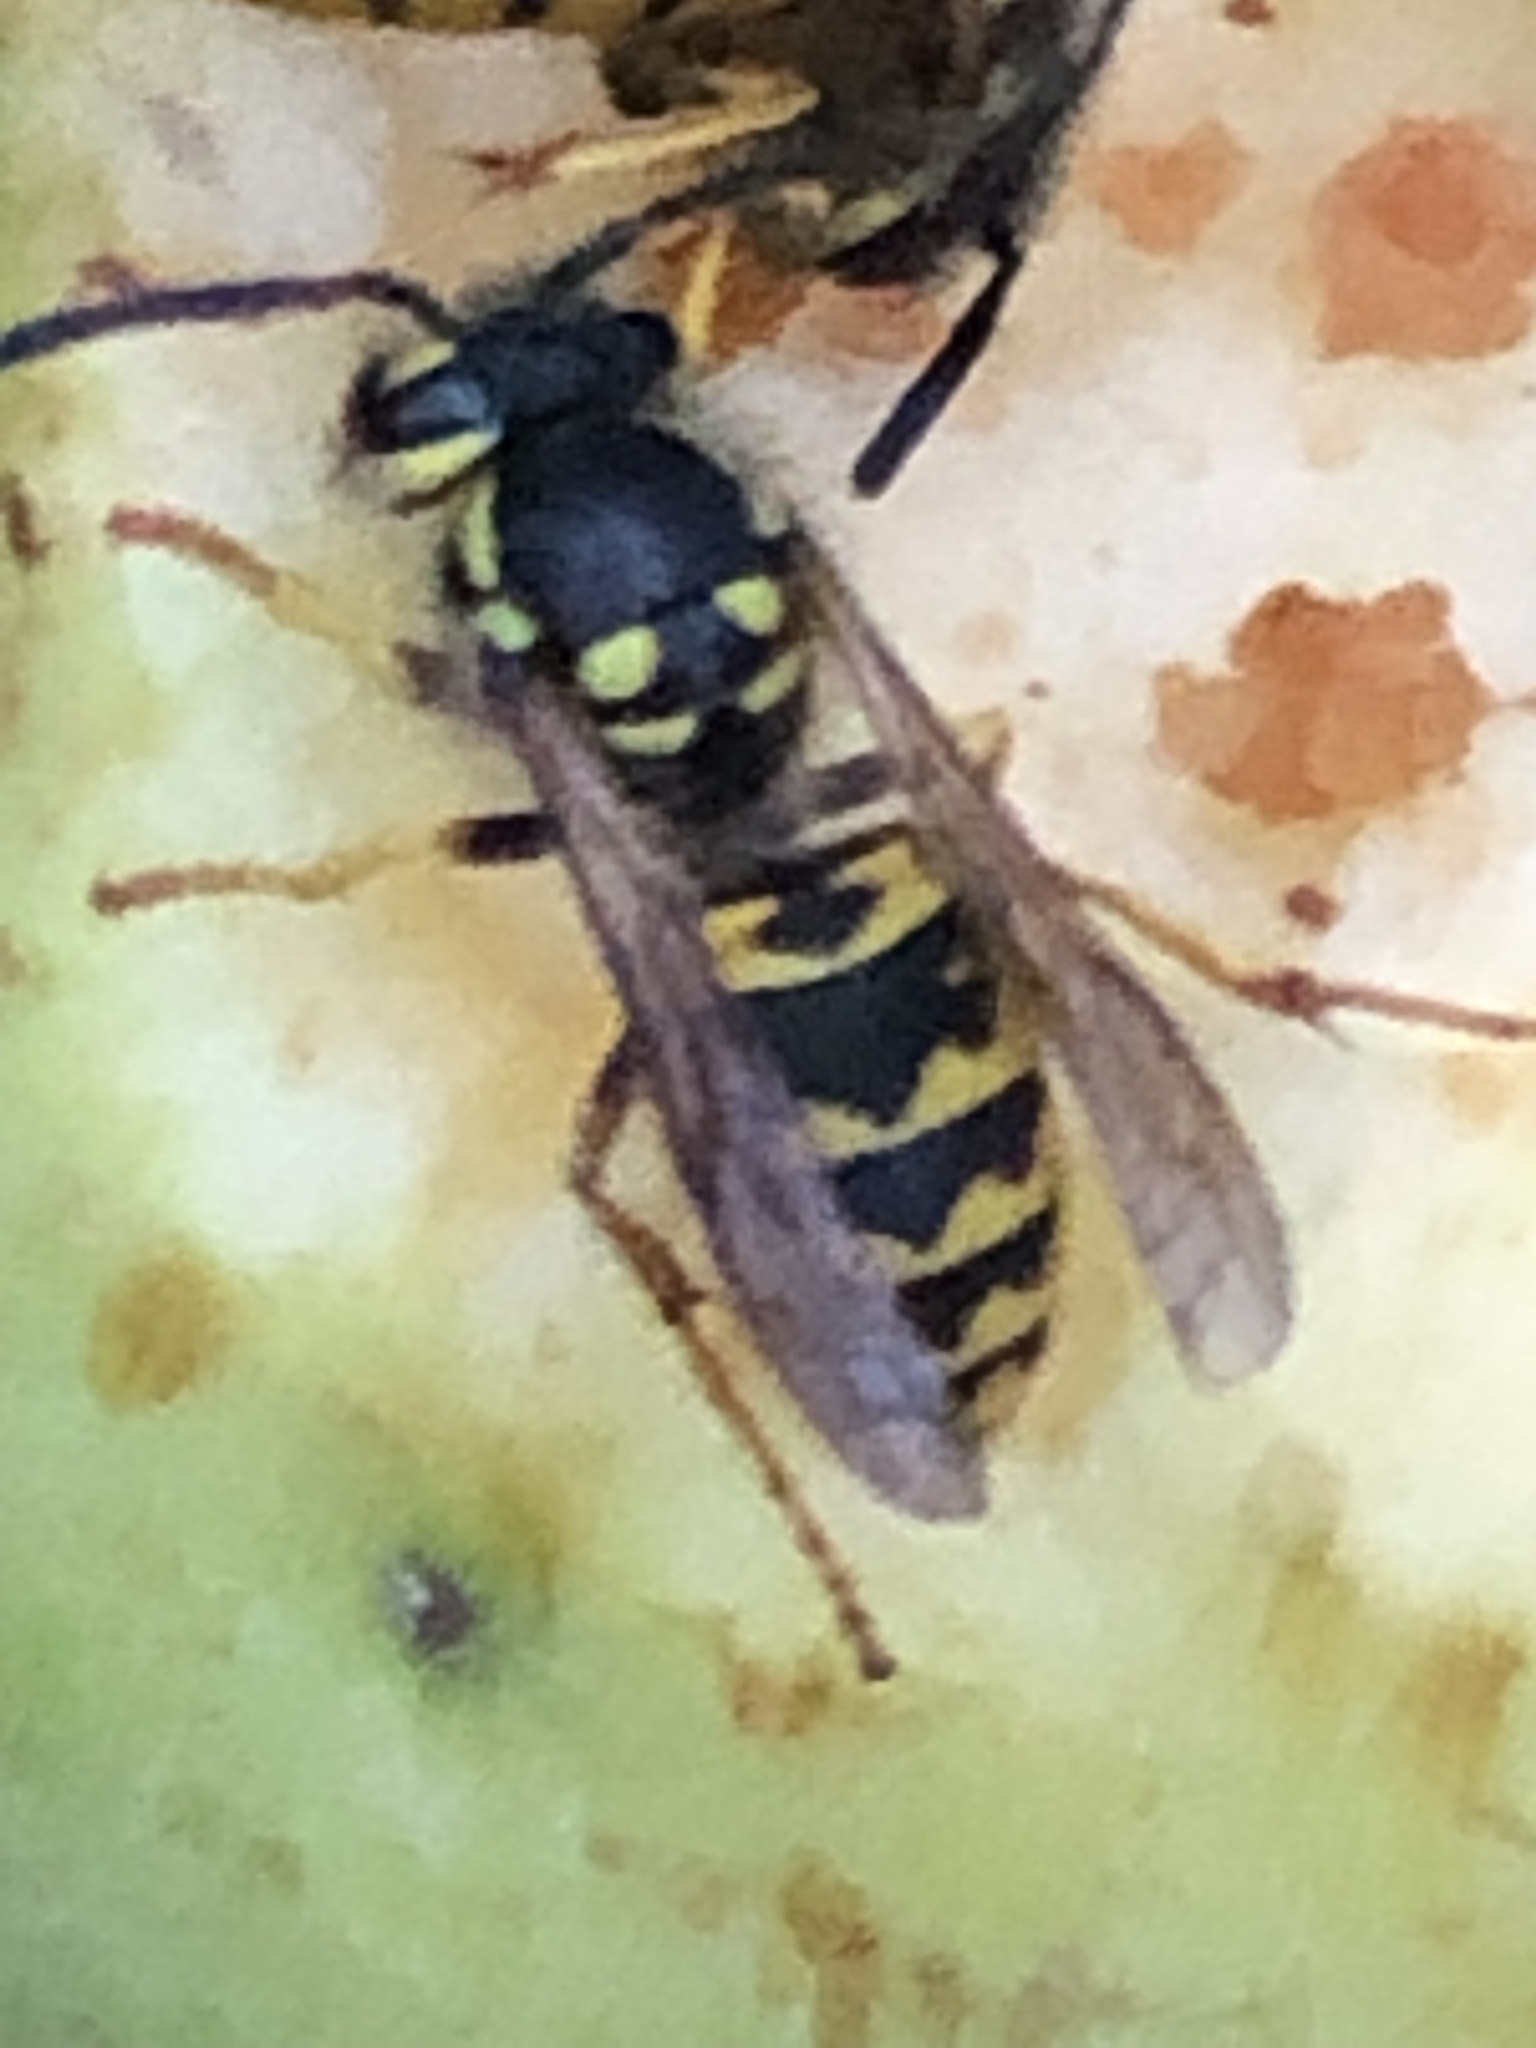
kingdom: Animalia
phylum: Arthropoda
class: Insecta
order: Hymenoptera
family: Vespidae
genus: Vespula
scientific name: Vespula germanica
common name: German wasp
